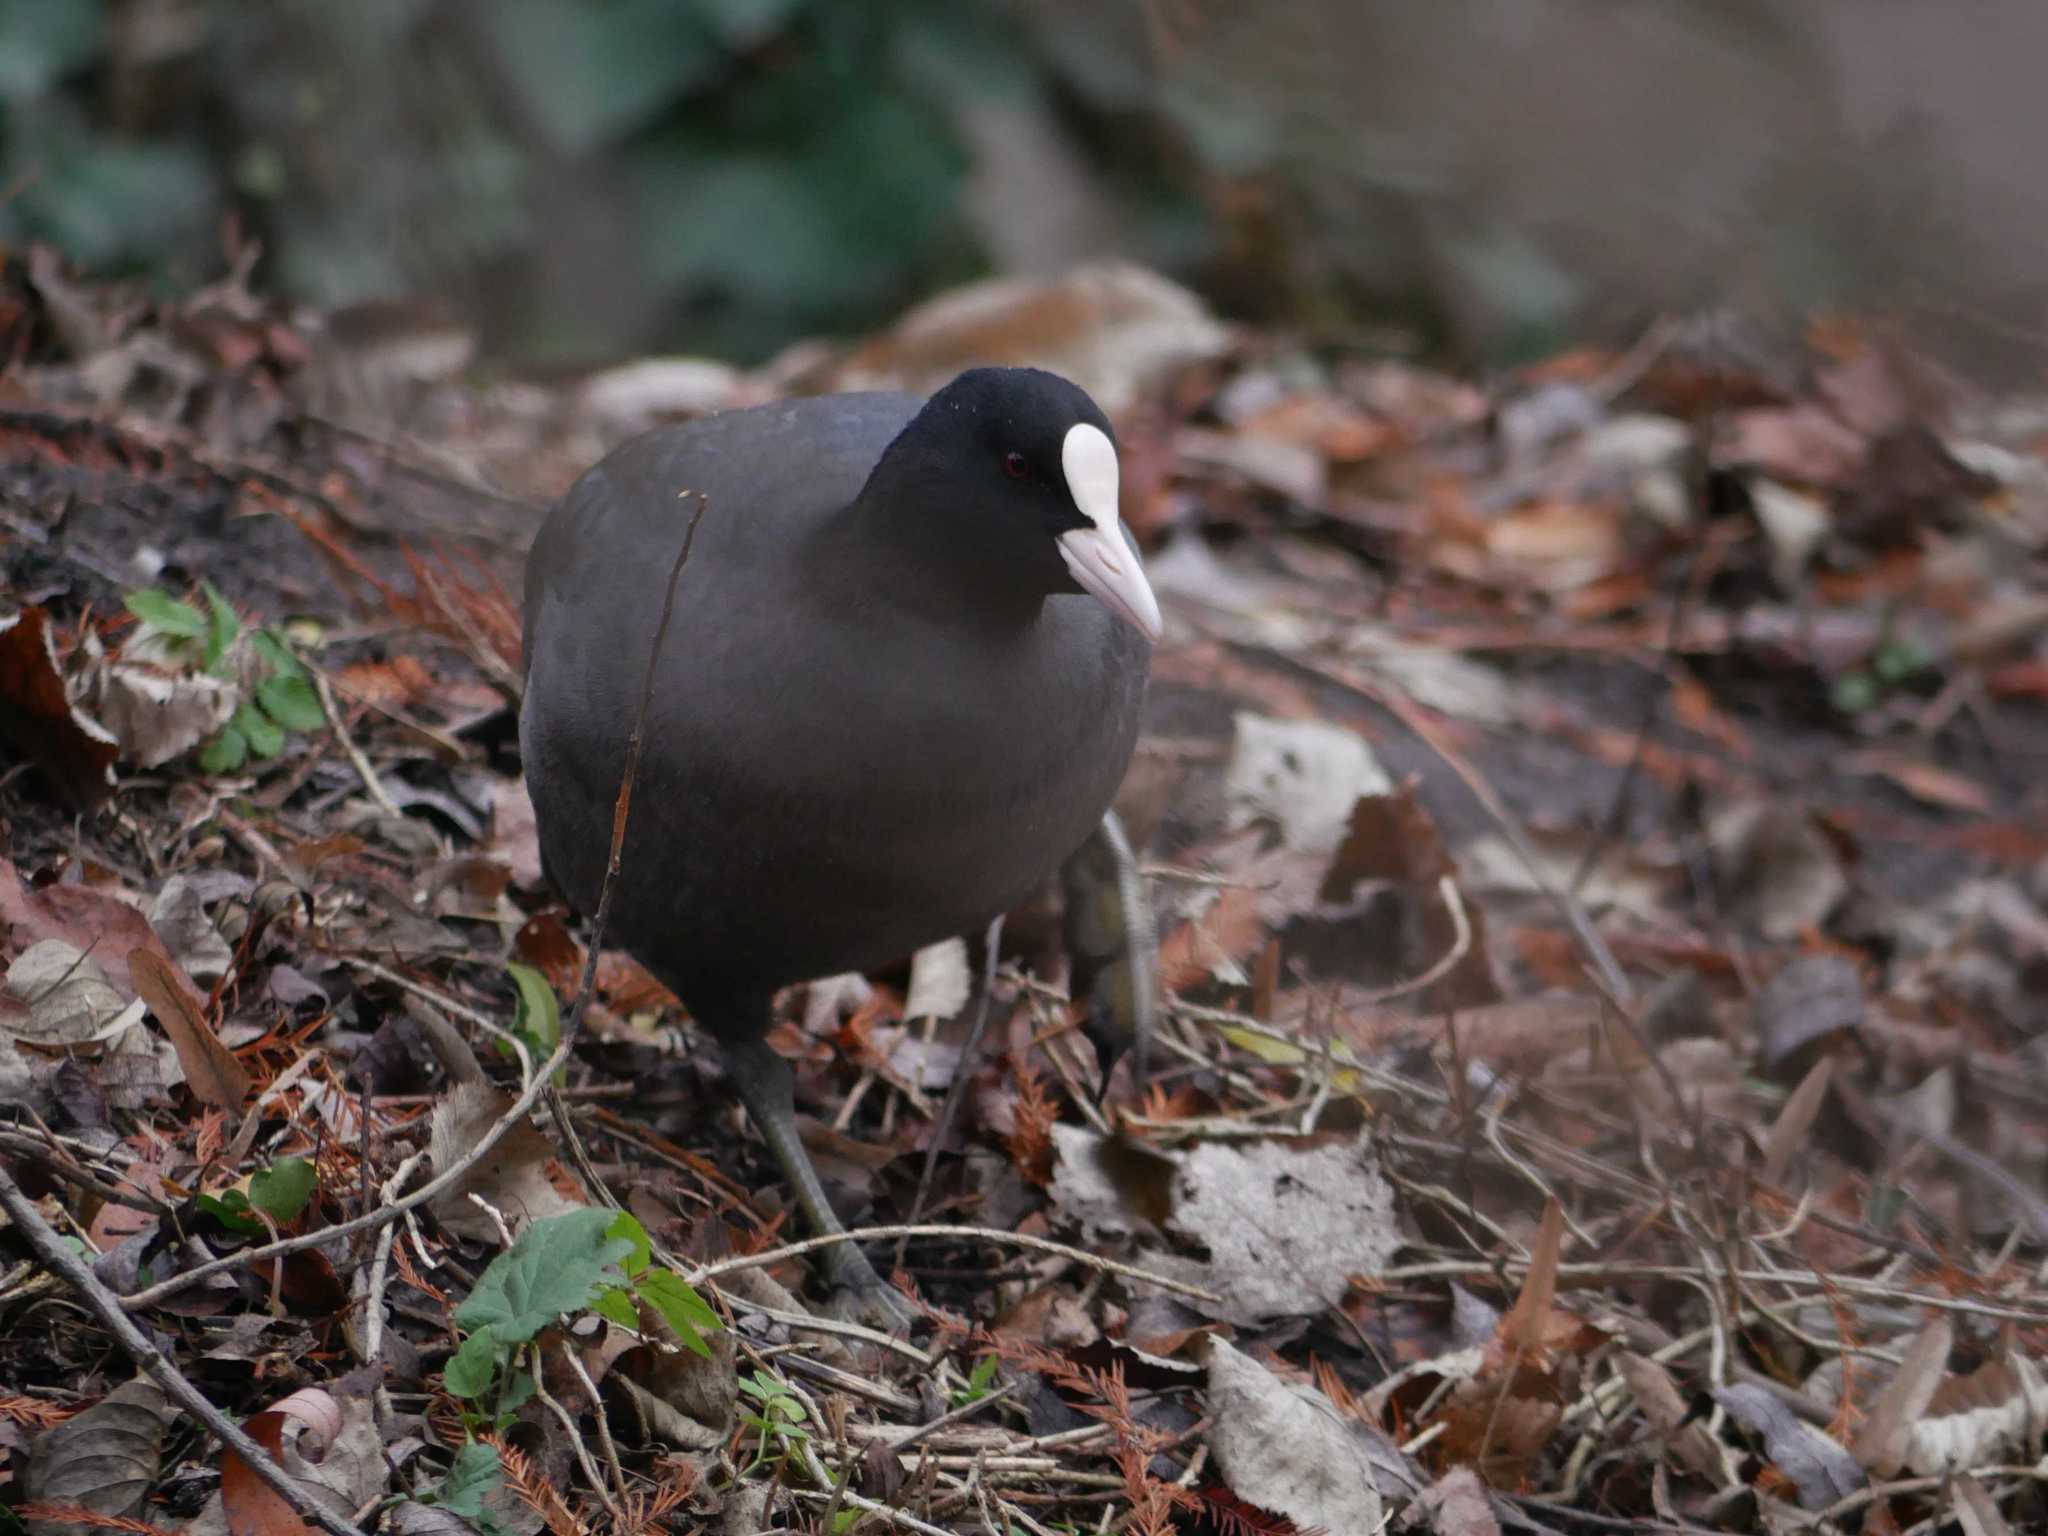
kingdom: Animalia
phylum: Chordata
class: Aves
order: Gruiformes
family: Rallidae
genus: Fulica
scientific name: Fulica atra
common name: Eurasian coot
